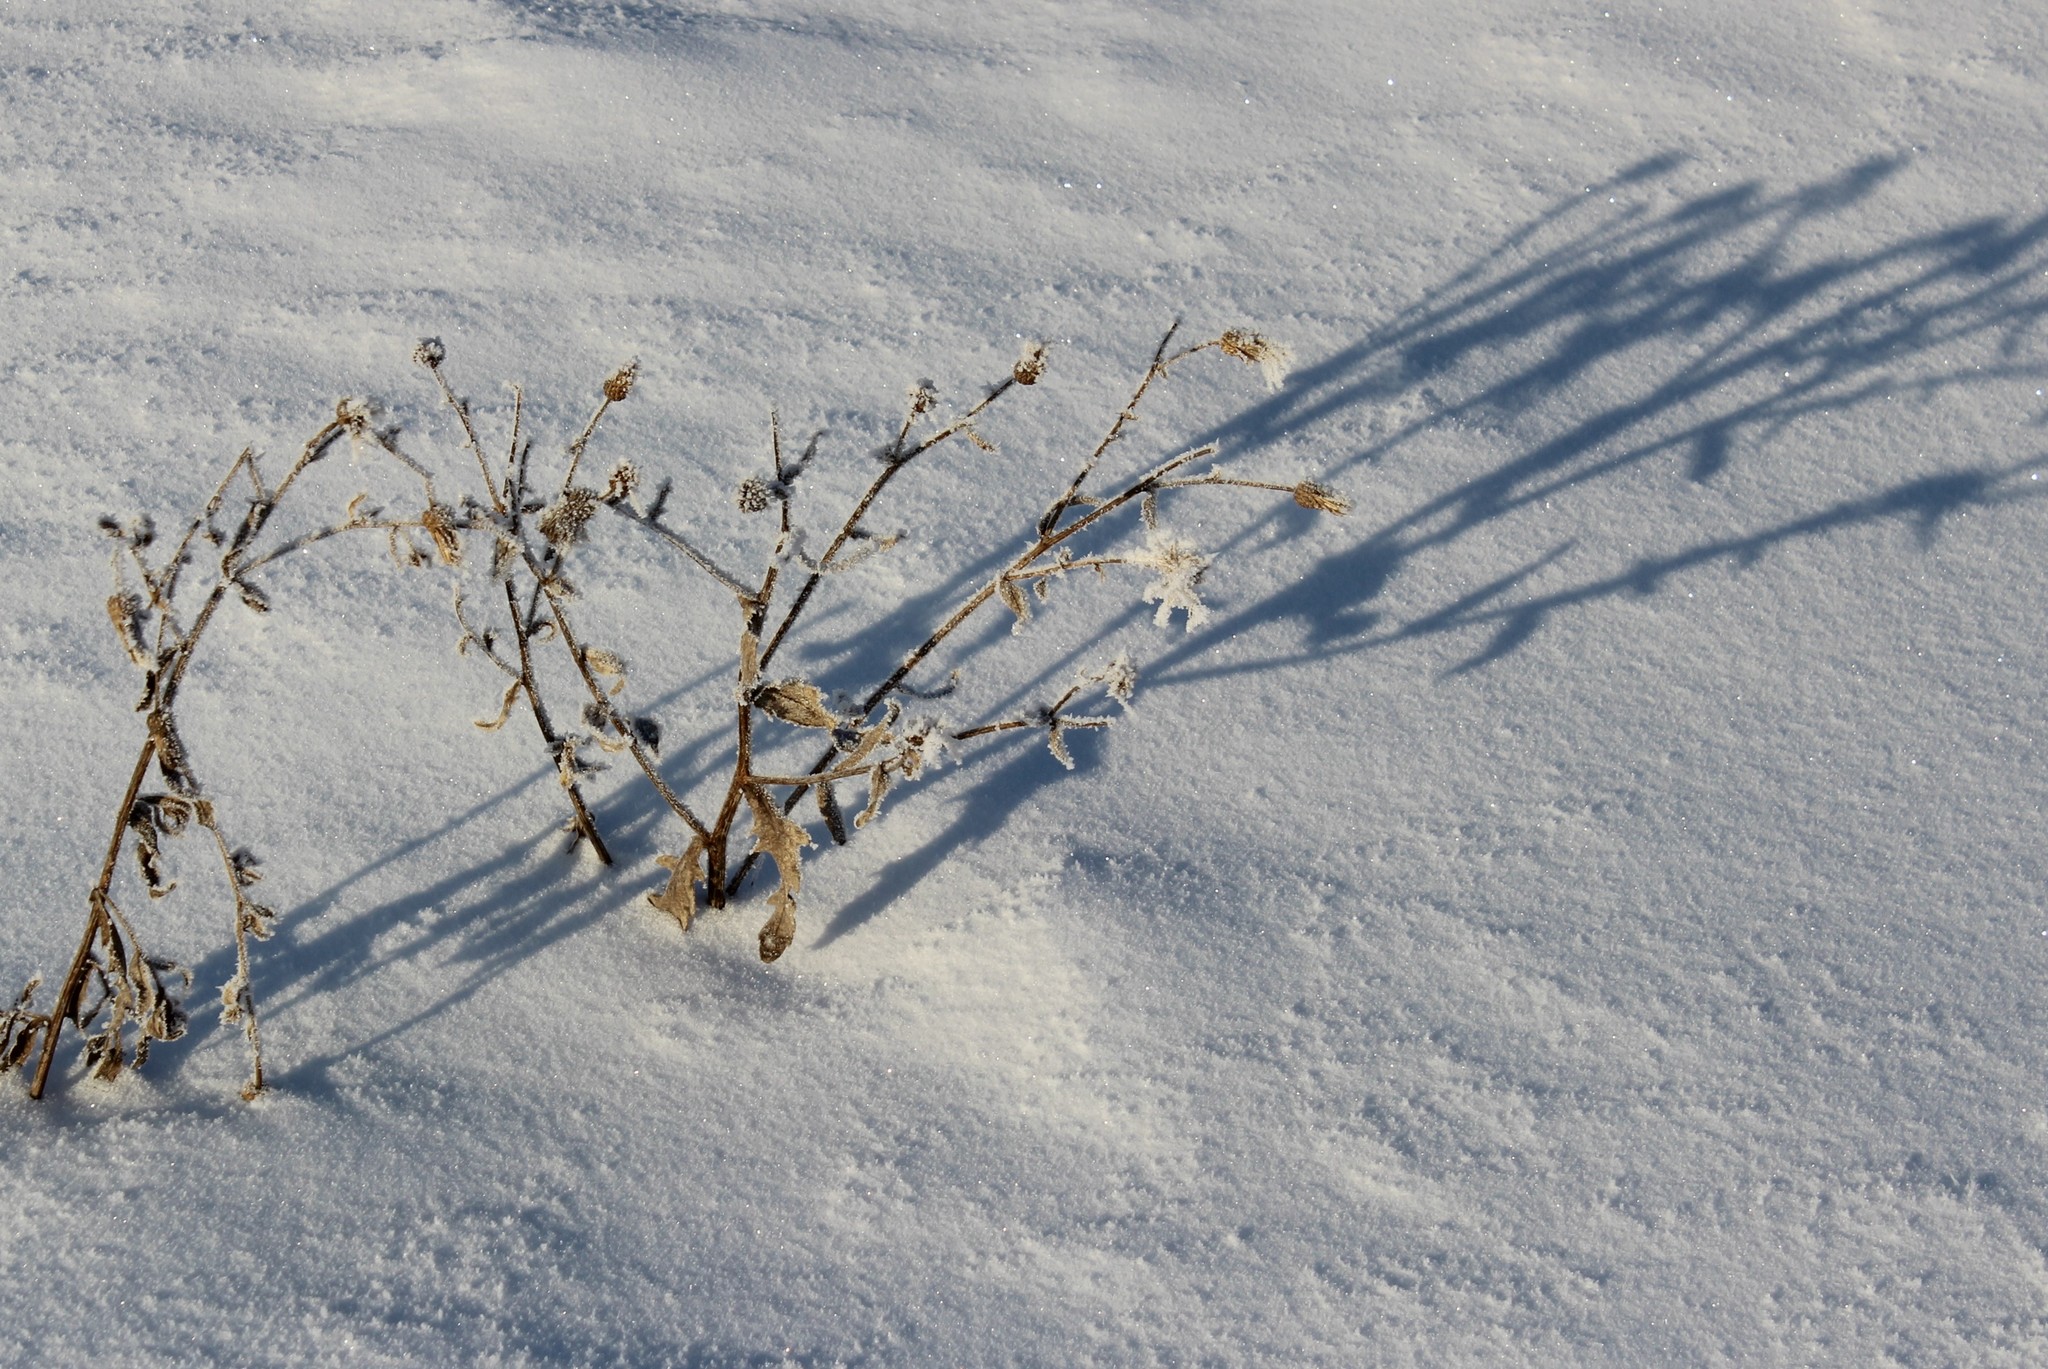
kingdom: Plantae
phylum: Tracheophyta
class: Magnoliopsida
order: Asterales
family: Asteraceae
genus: Cirsium
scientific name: Cirsium arvense
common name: Creeping thistle
